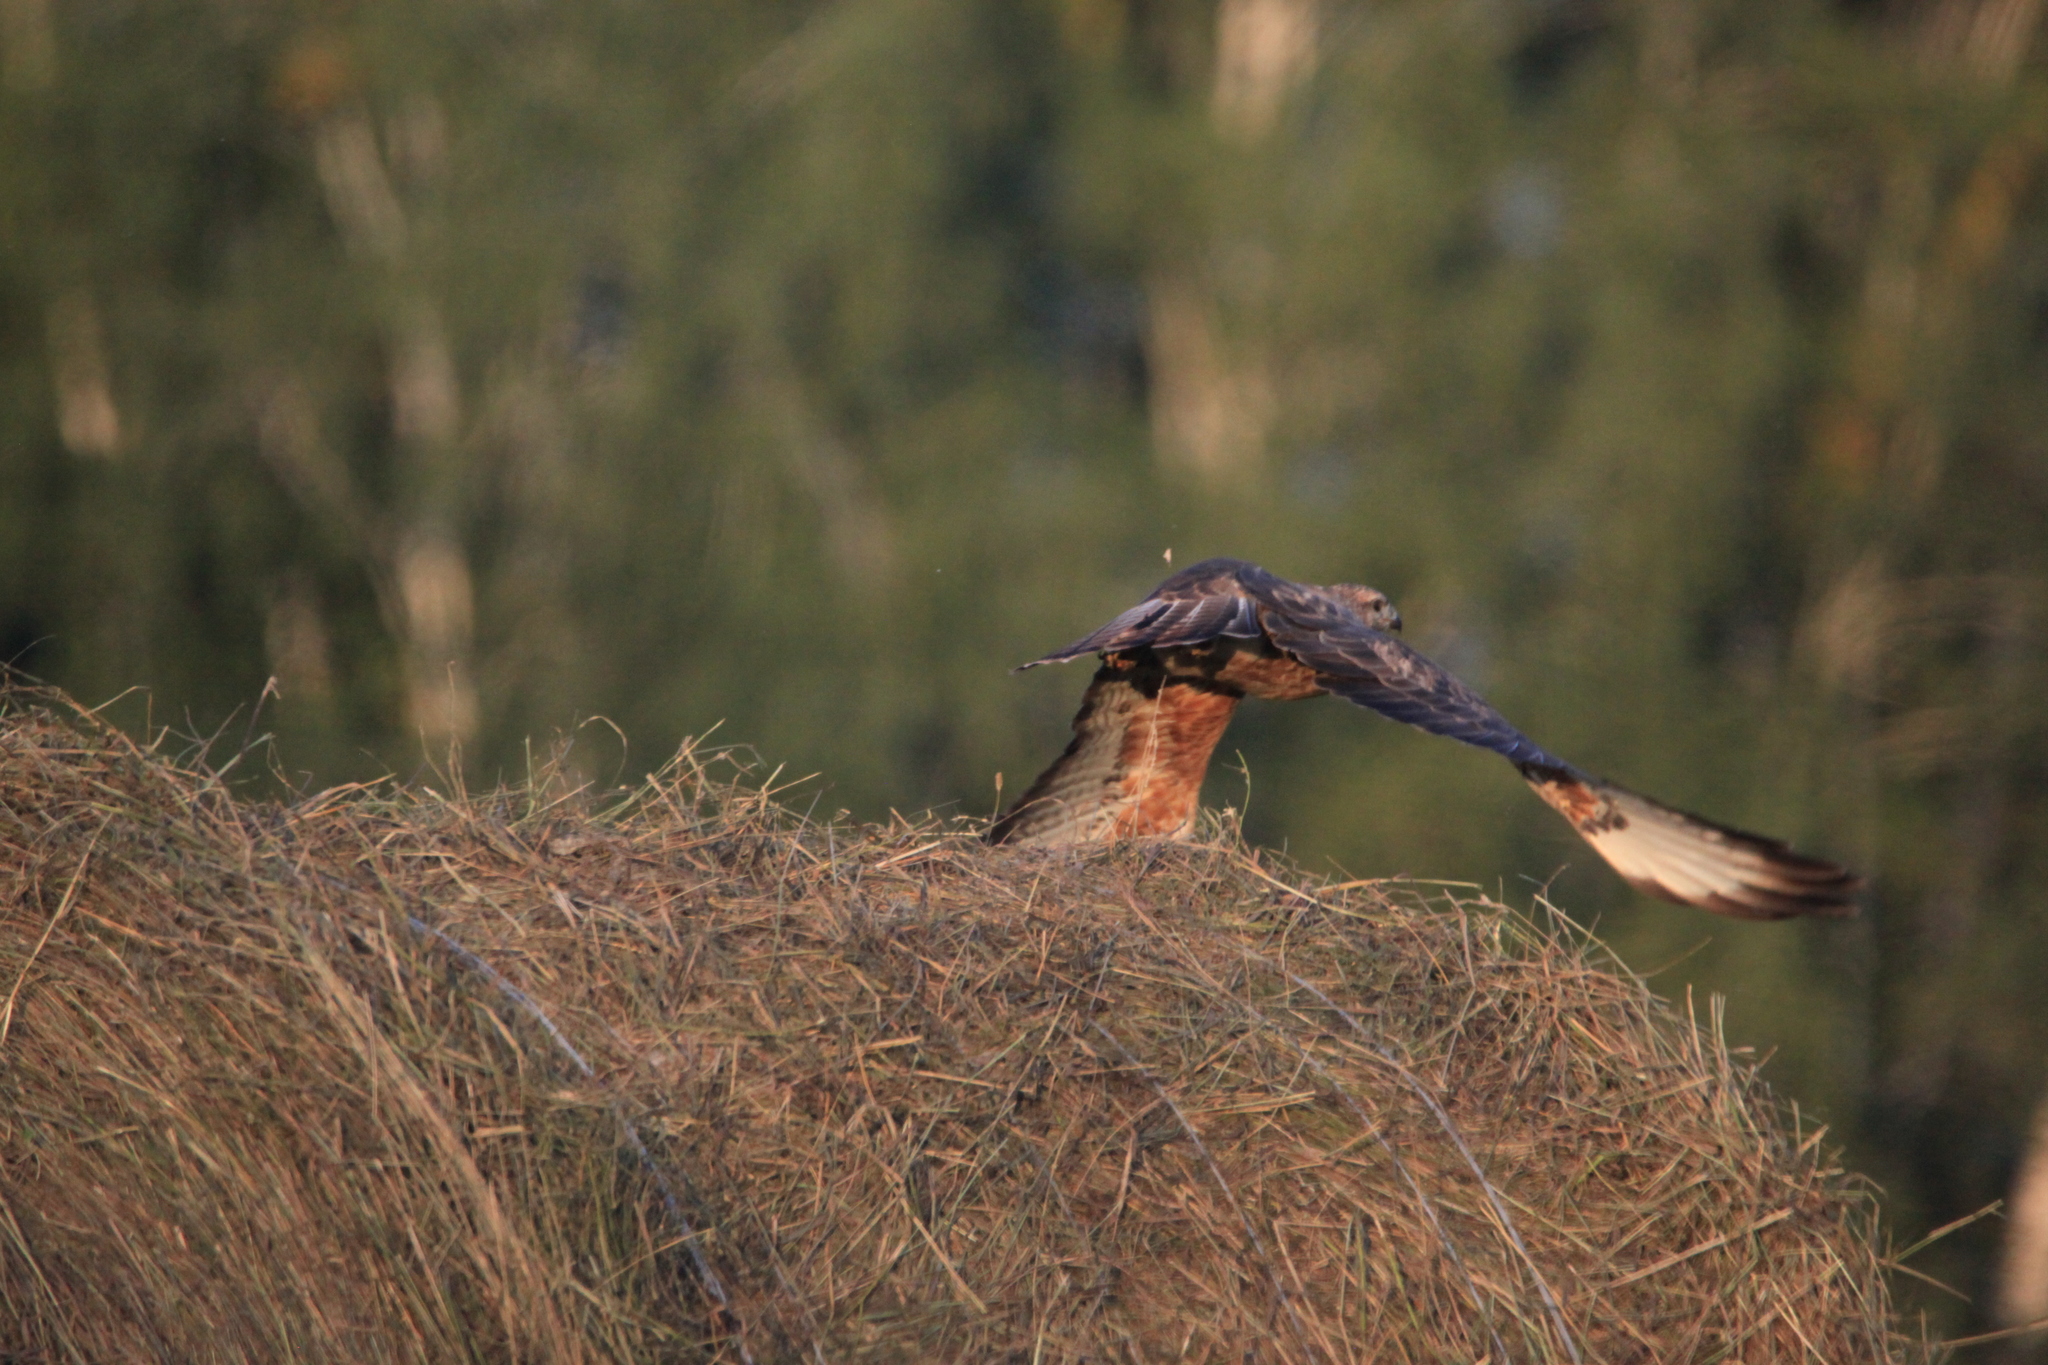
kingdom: Animalia
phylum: Chordata
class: Aves
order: Accipitriformes
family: Accipitridae
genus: Buteo
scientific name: Buteo buteo
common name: Common buzzard
